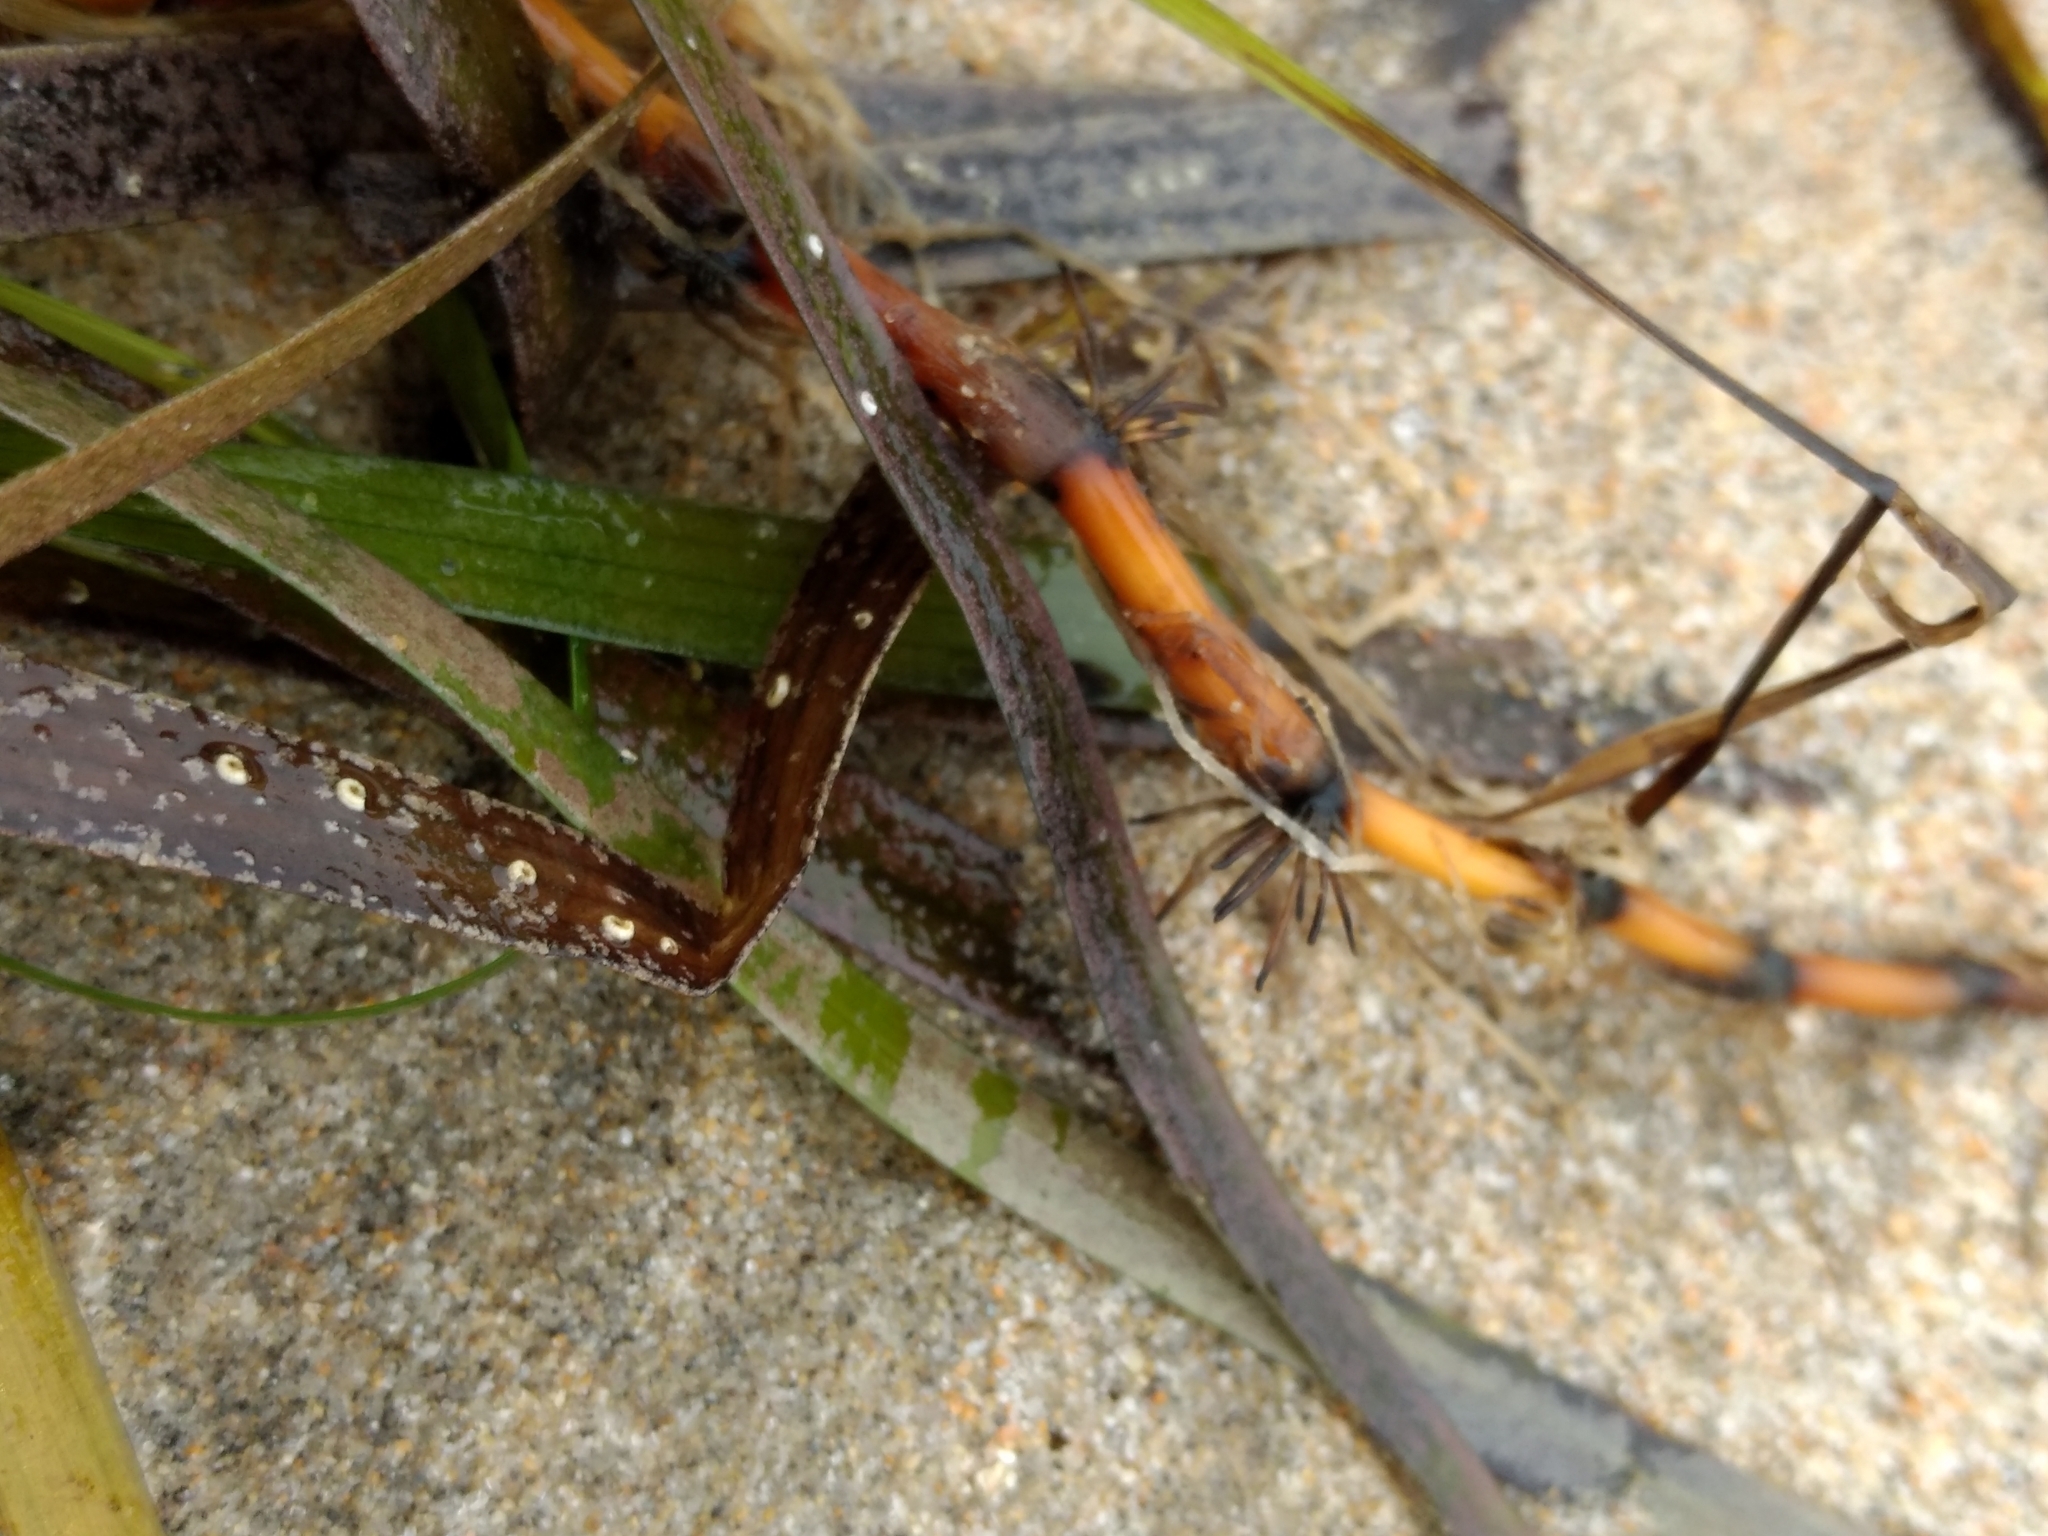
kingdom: Plantae
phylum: Tracheophyta
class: Liliopsida
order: Alismatales
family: Zosteraceae
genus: Zostera
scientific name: Zostera marina
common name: Eelgrass
